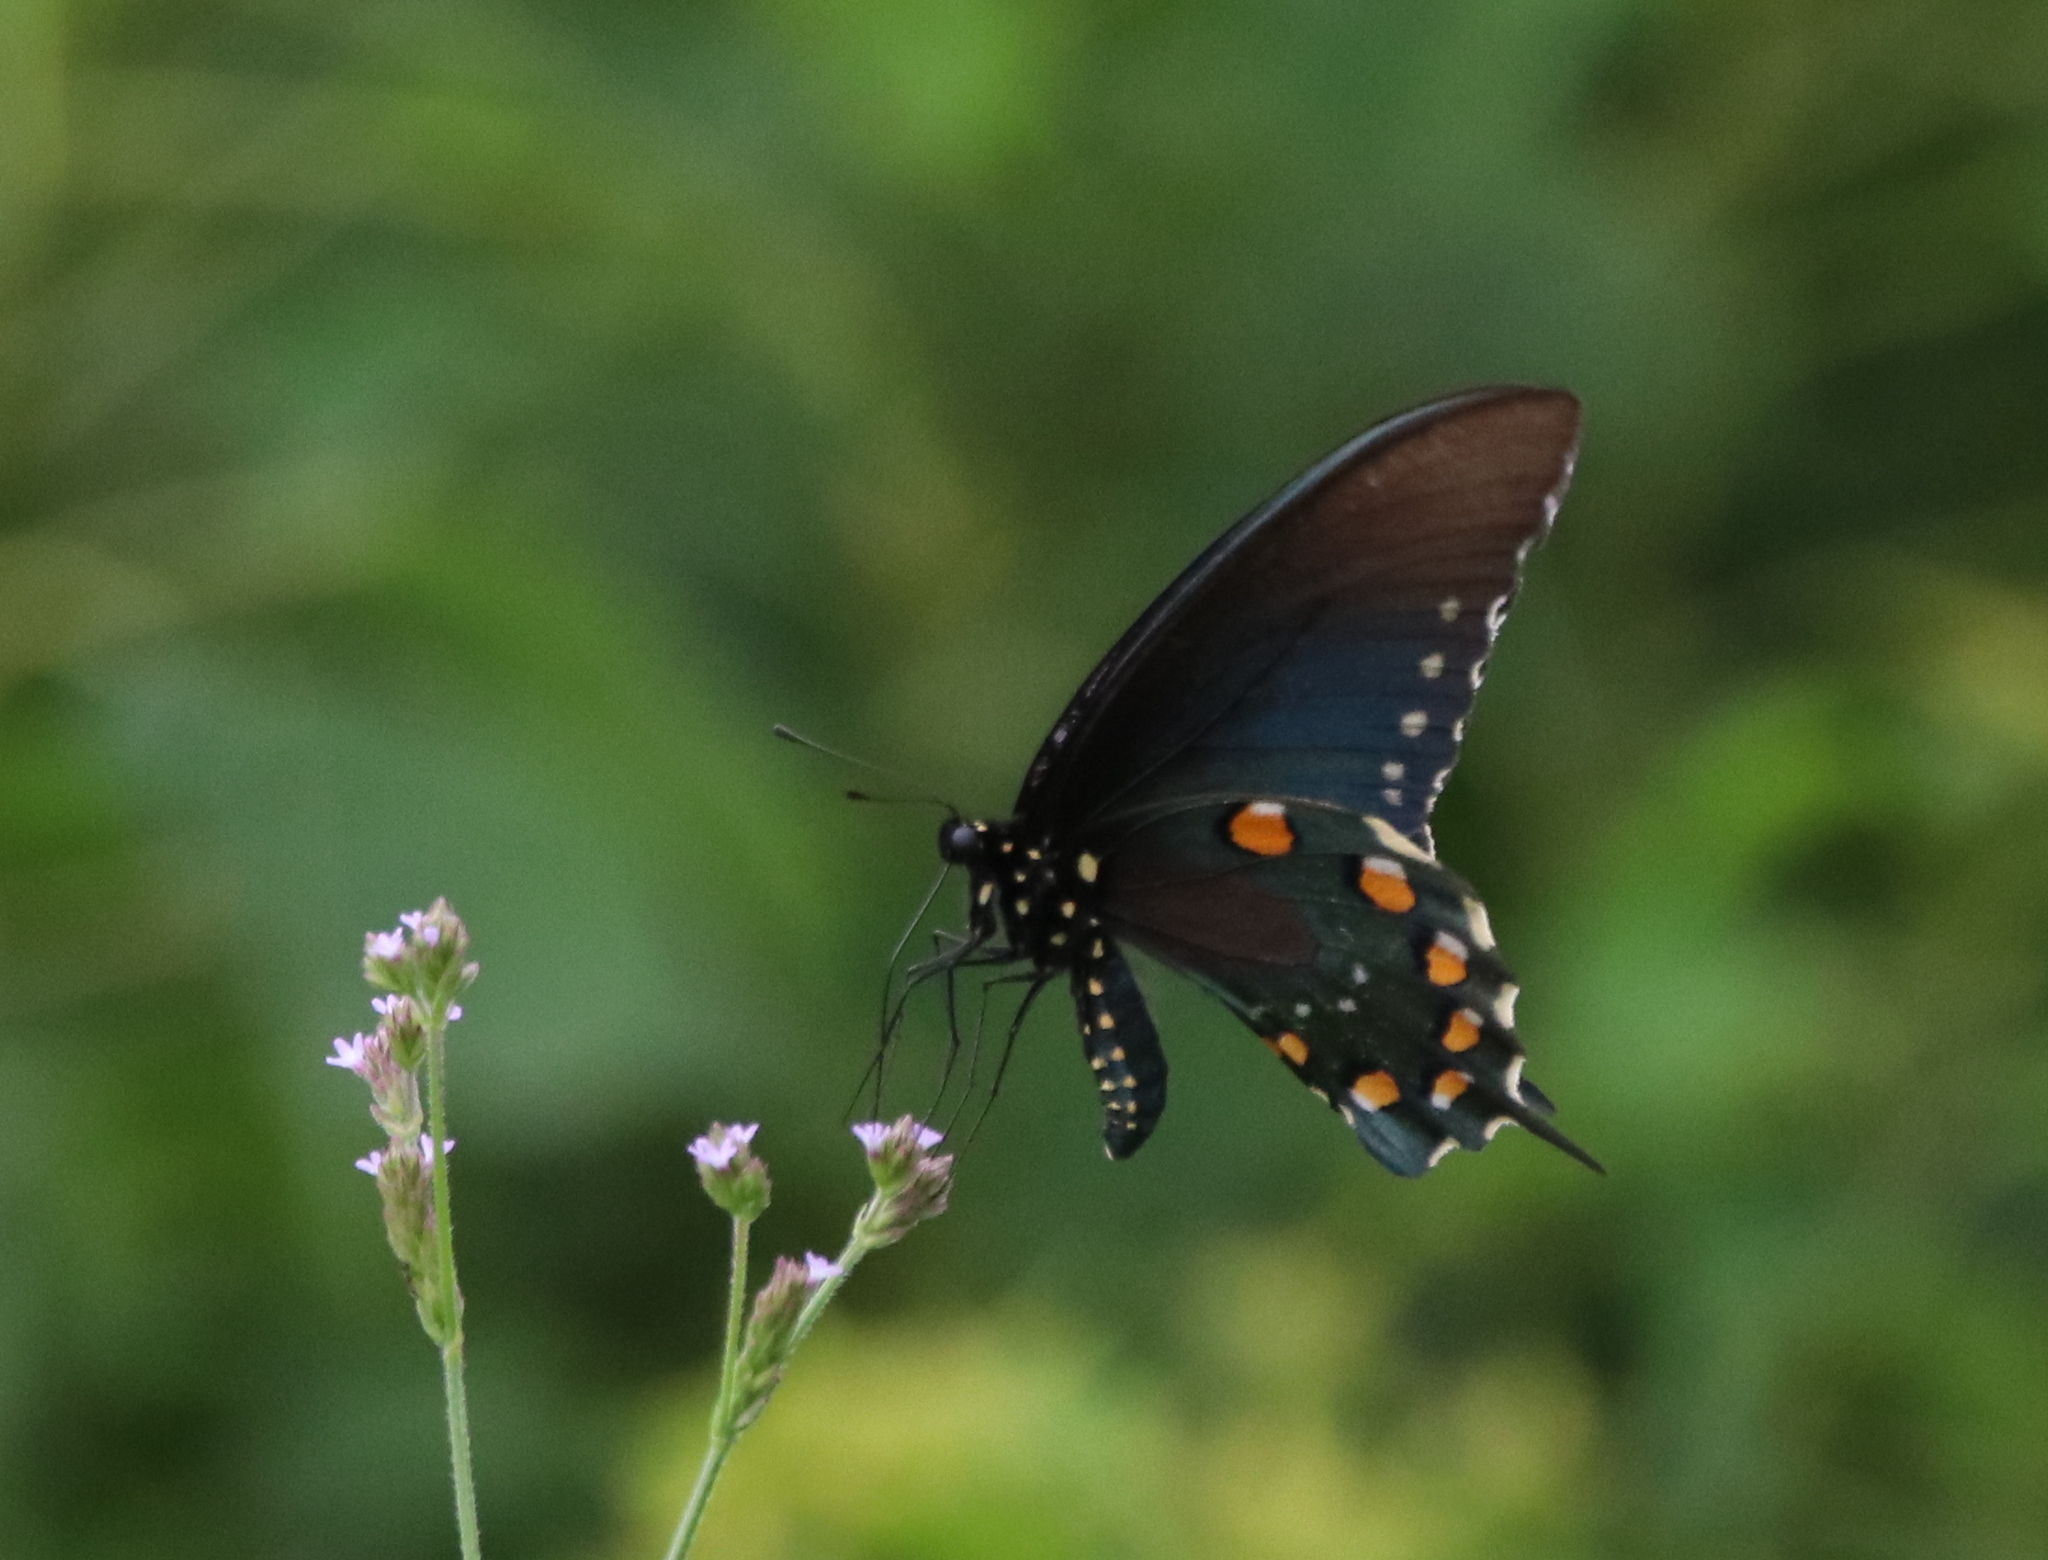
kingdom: Animalia
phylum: Arthropoda
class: Insecta
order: Lepidoptera
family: Papilionidae
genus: Battus
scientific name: Battus philenor
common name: Pipevine swallowtail
